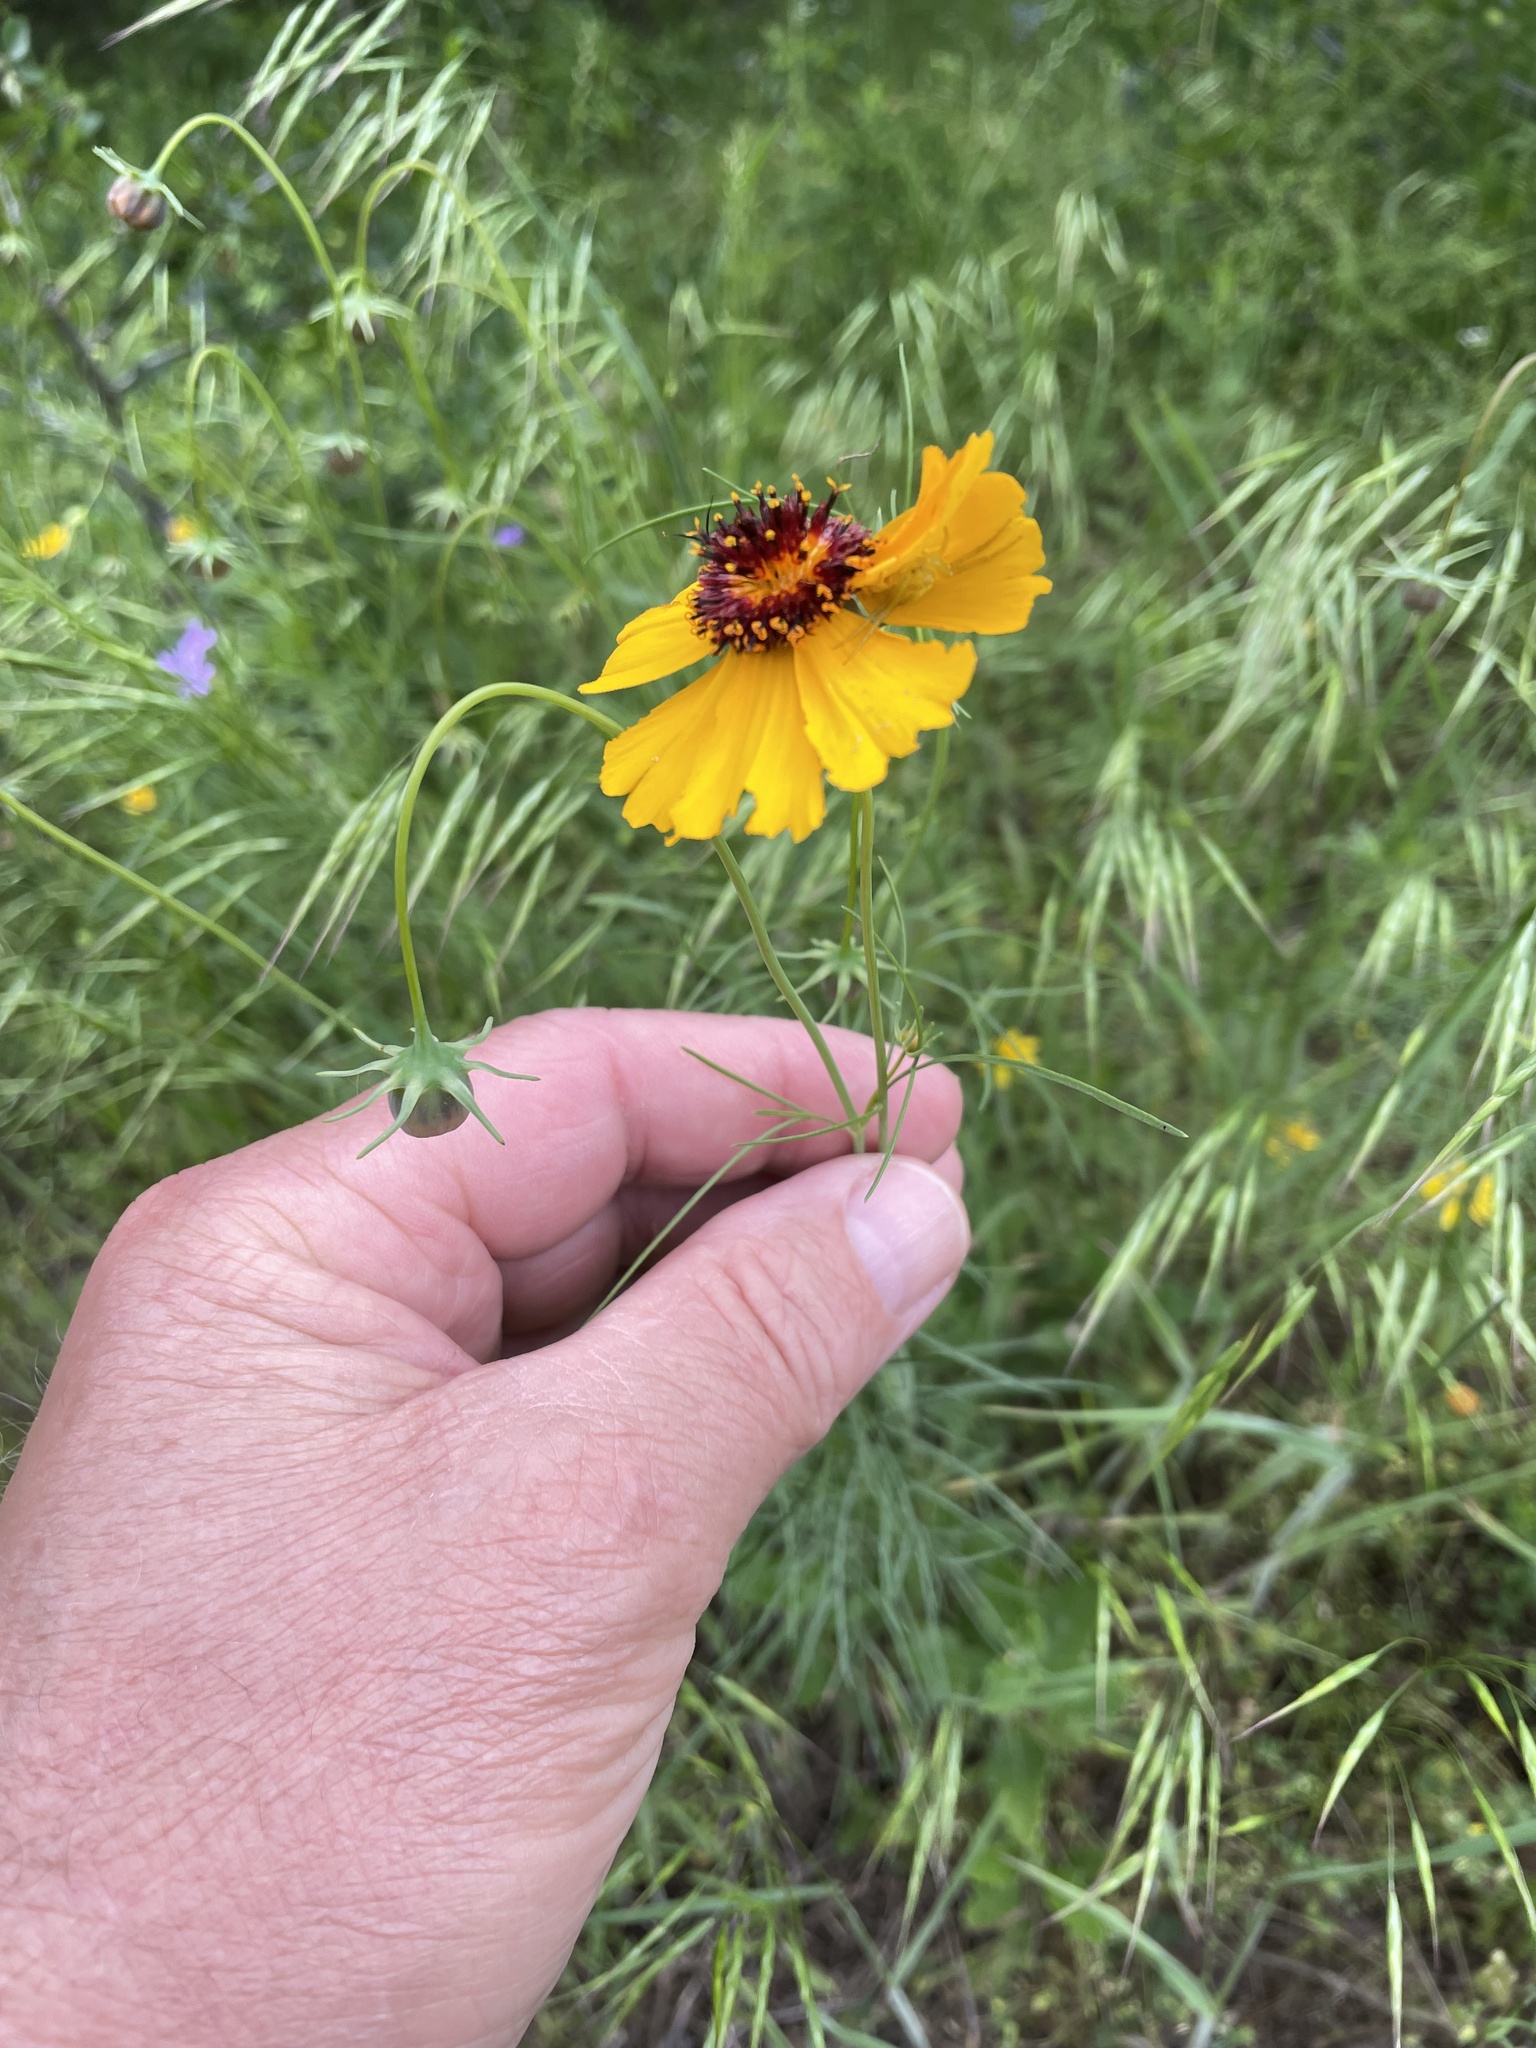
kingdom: Plantae
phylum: Tracheophyta
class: Magnoliopsida
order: Asterales
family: Asteraceae
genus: Thelesperma
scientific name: Thelesperma filifolium
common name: Stiff greenthread
